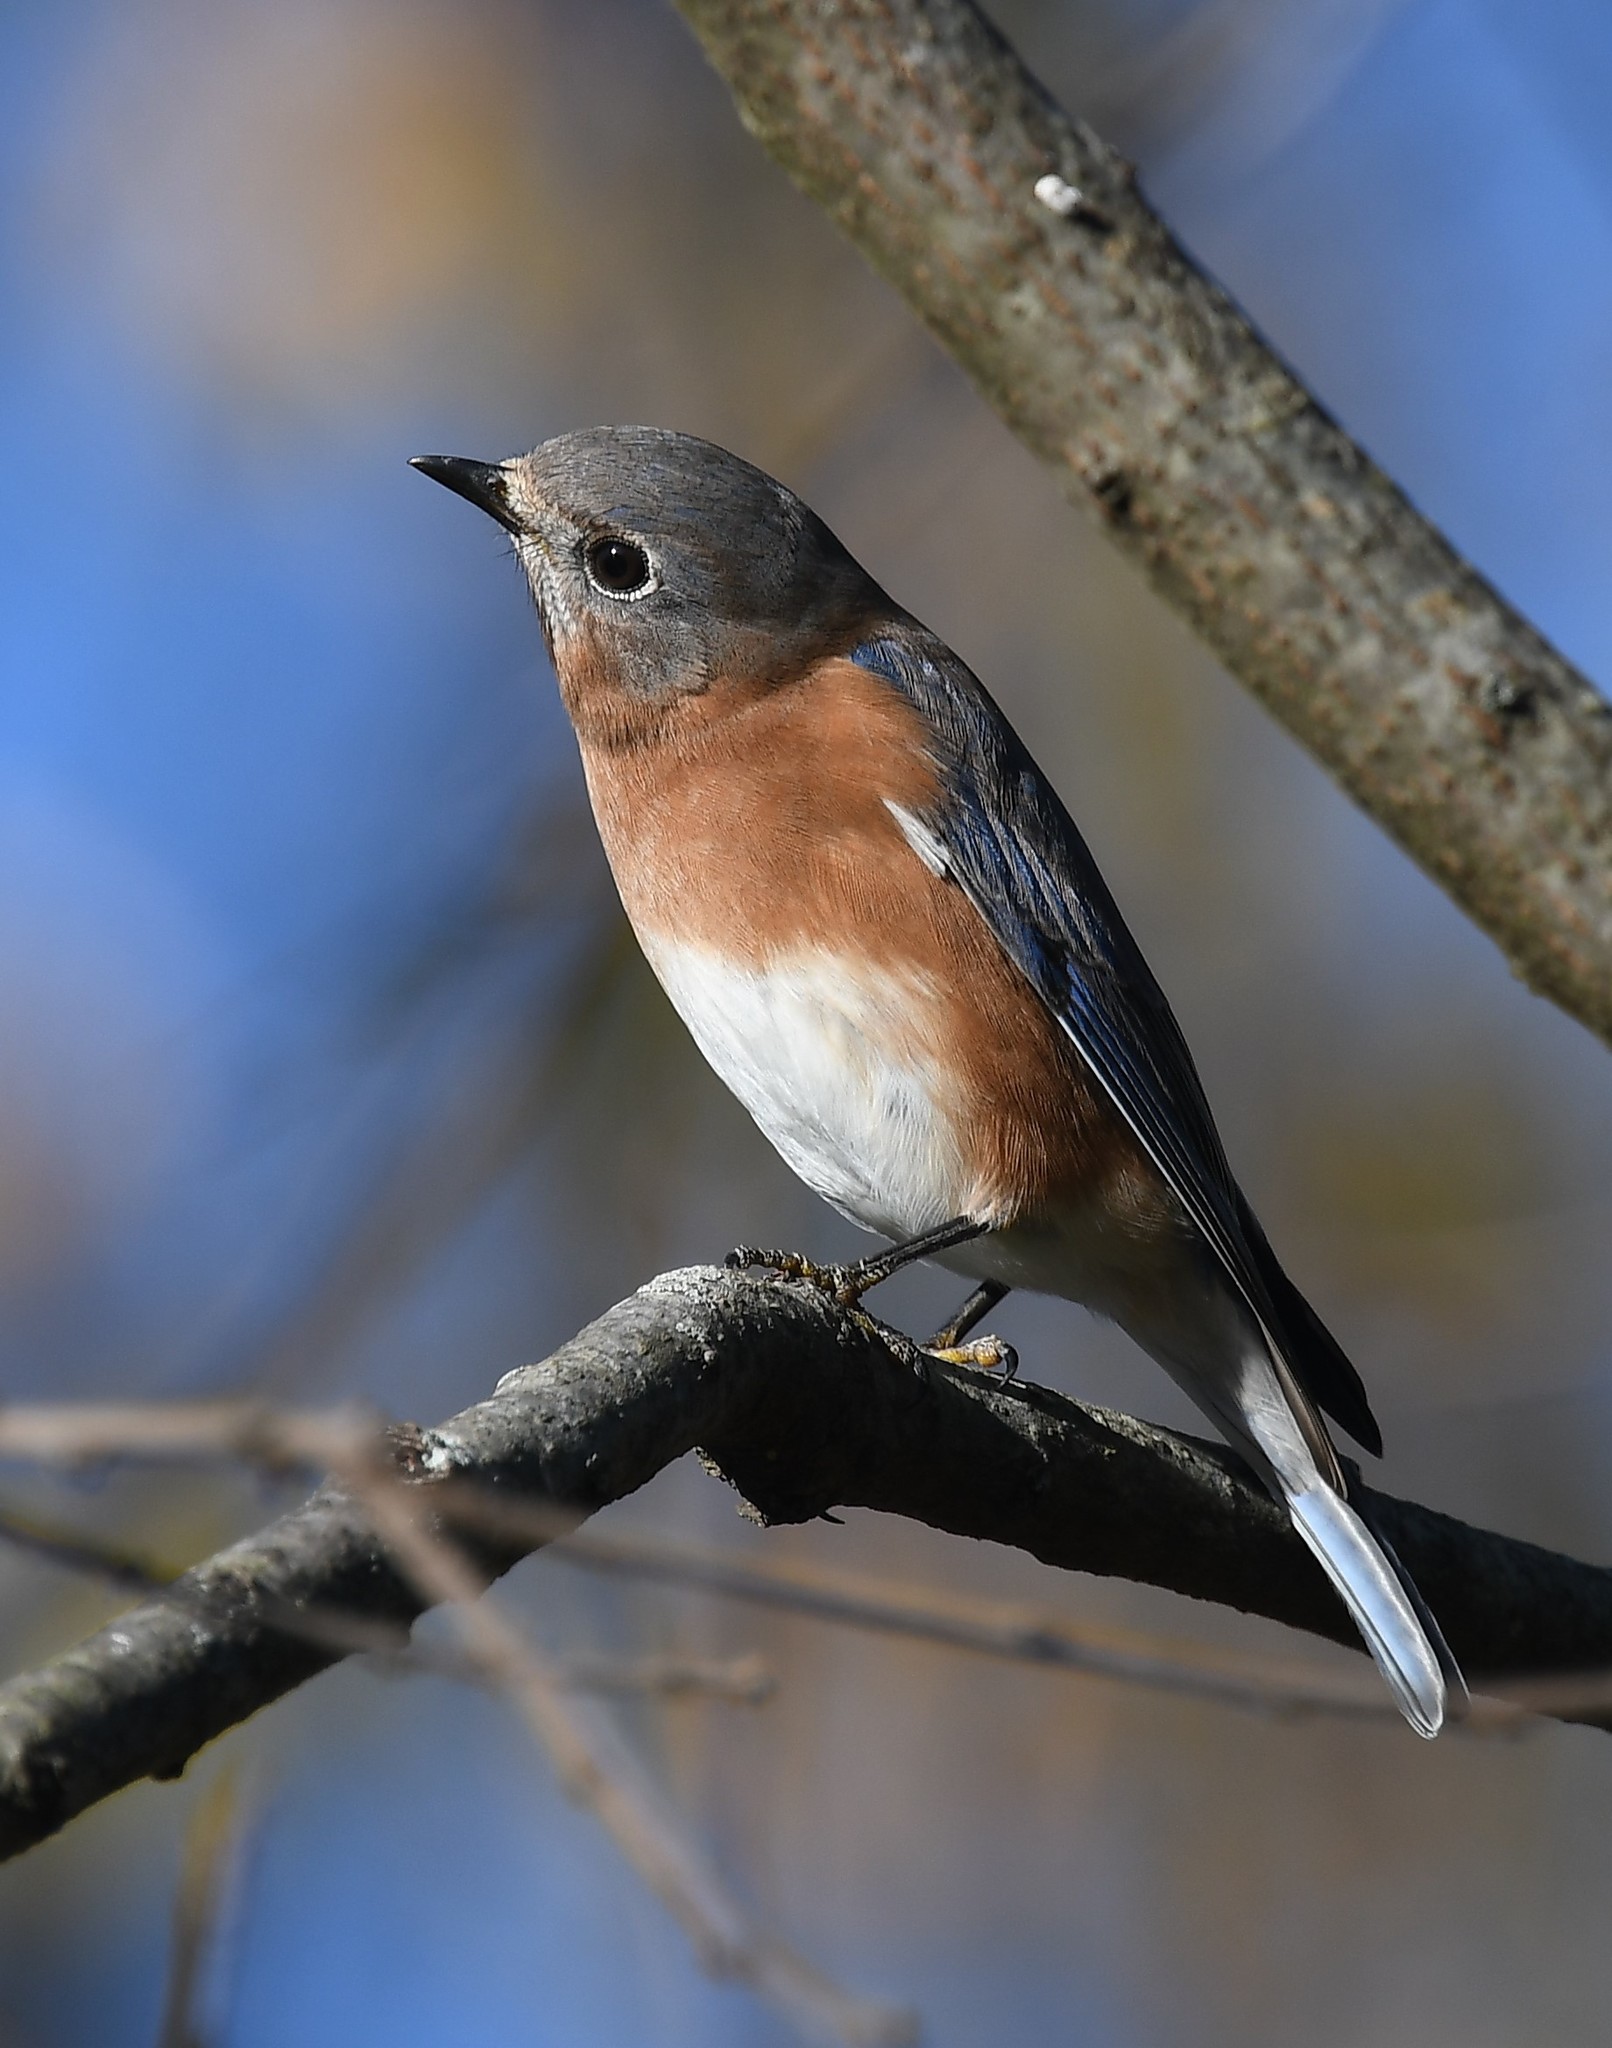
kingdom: Animalia
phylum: Chordata
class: Aves
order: Passeriformes
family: Turdidae
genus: Sialia
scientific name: Sialia sialis
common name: Eastern bluebird
